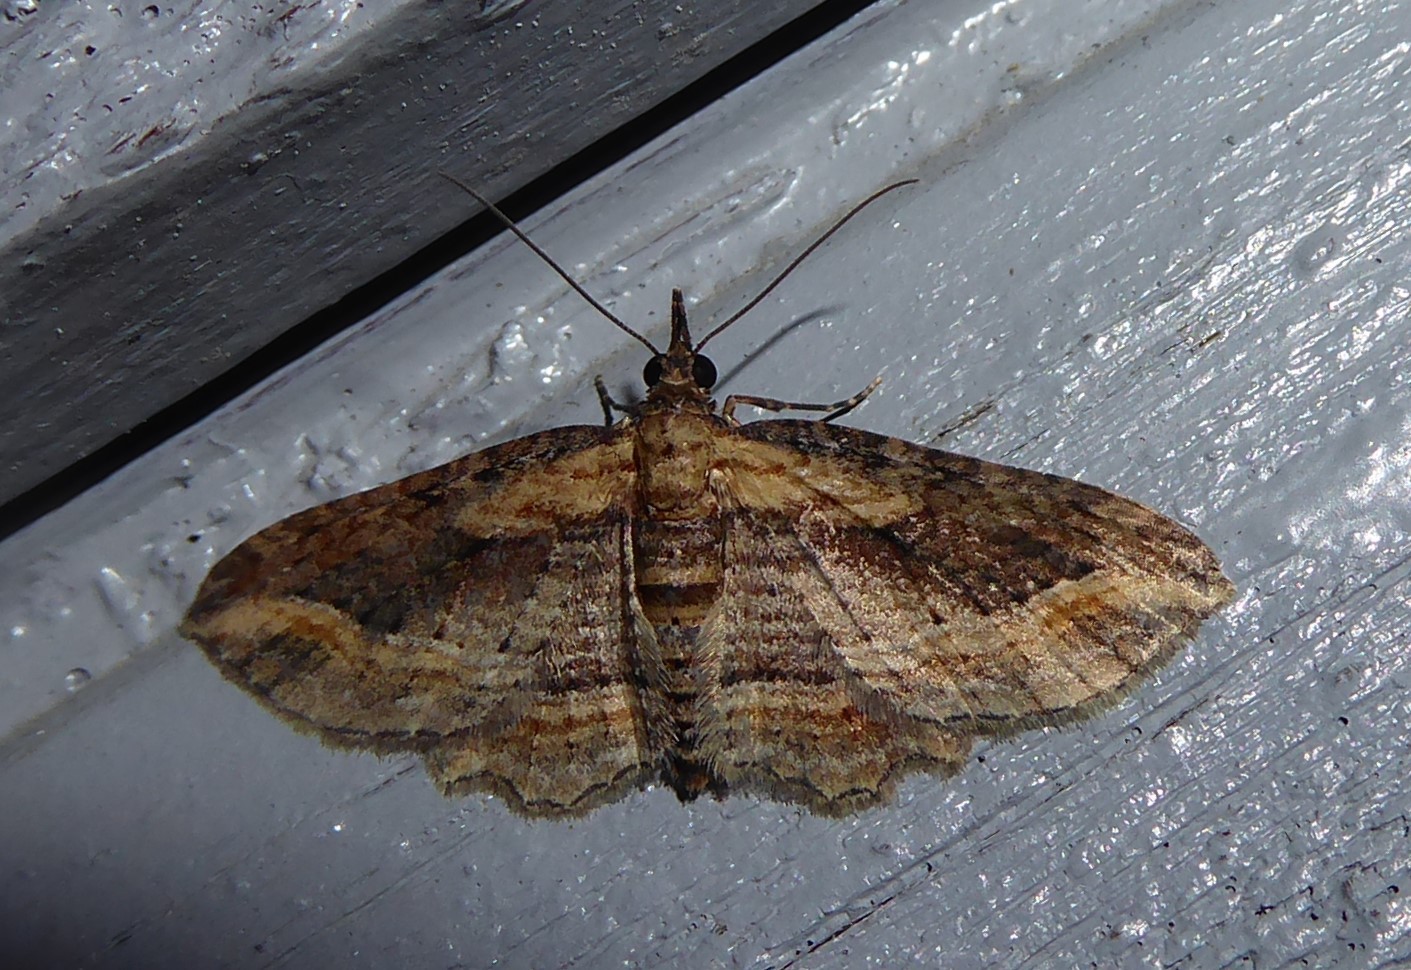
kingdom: Animalia
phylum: Arthropoda
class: Insecta
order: Lepidoptera
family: Geometridae
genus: Chloroclystis
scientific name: Chloroclystis filata
